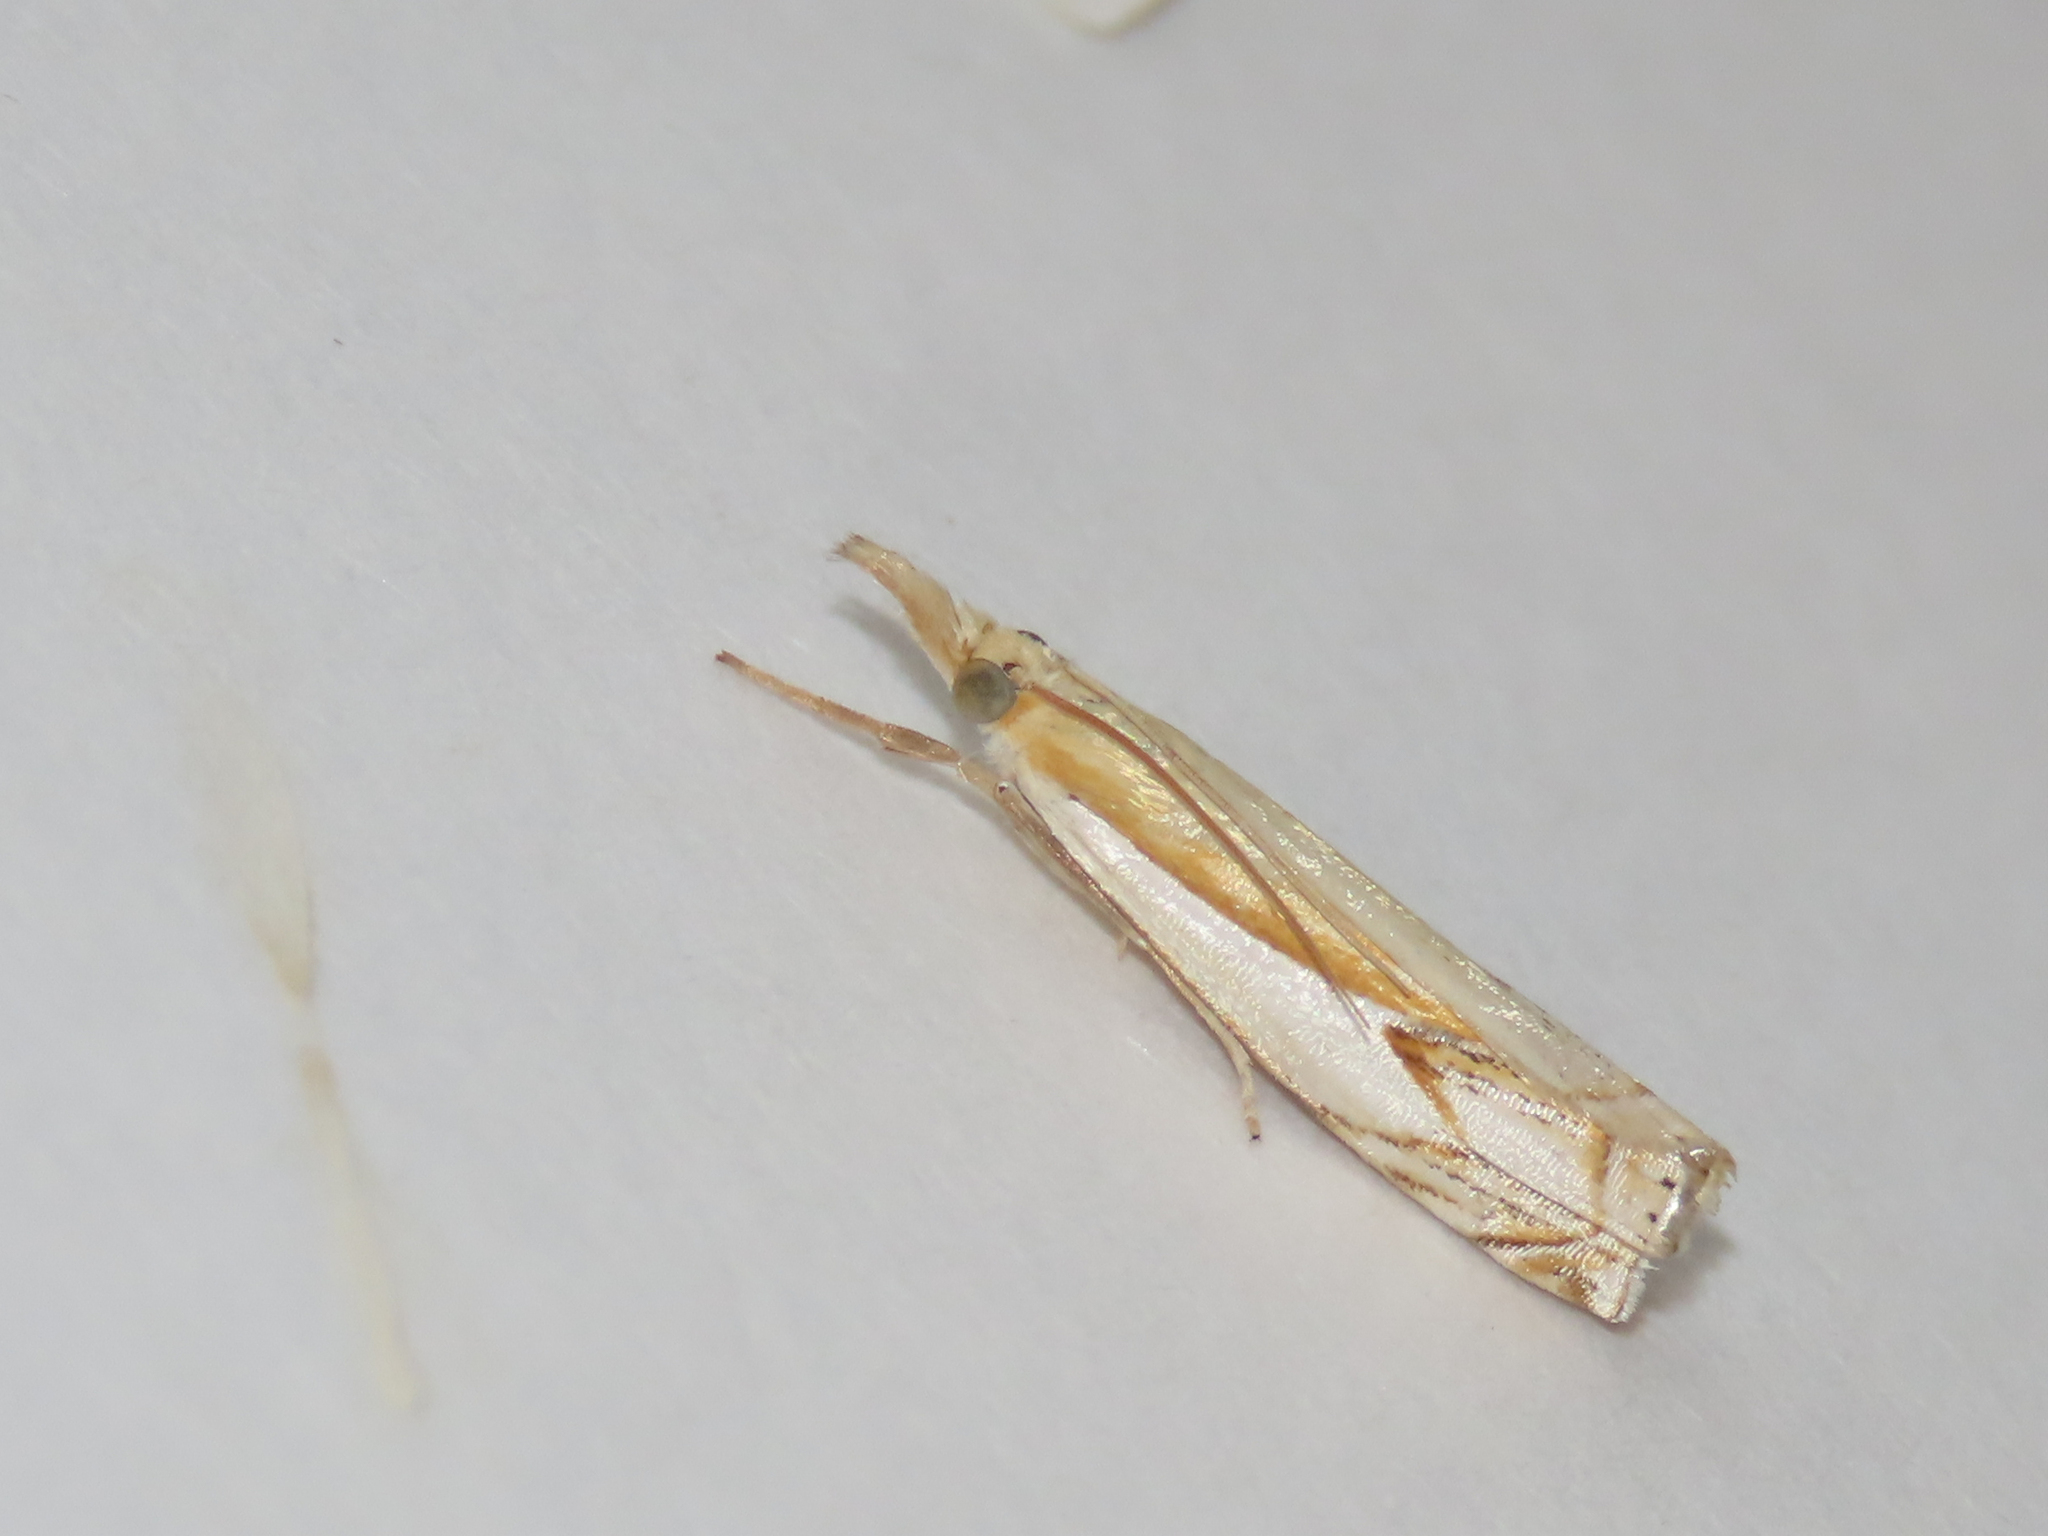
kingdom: Animalia
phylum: Arthropoda
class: Insecta
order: Lepidoptera
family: Crambidae
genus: Crambus
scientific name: Crambus agitatellus
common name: Double-banded grass-veneer
